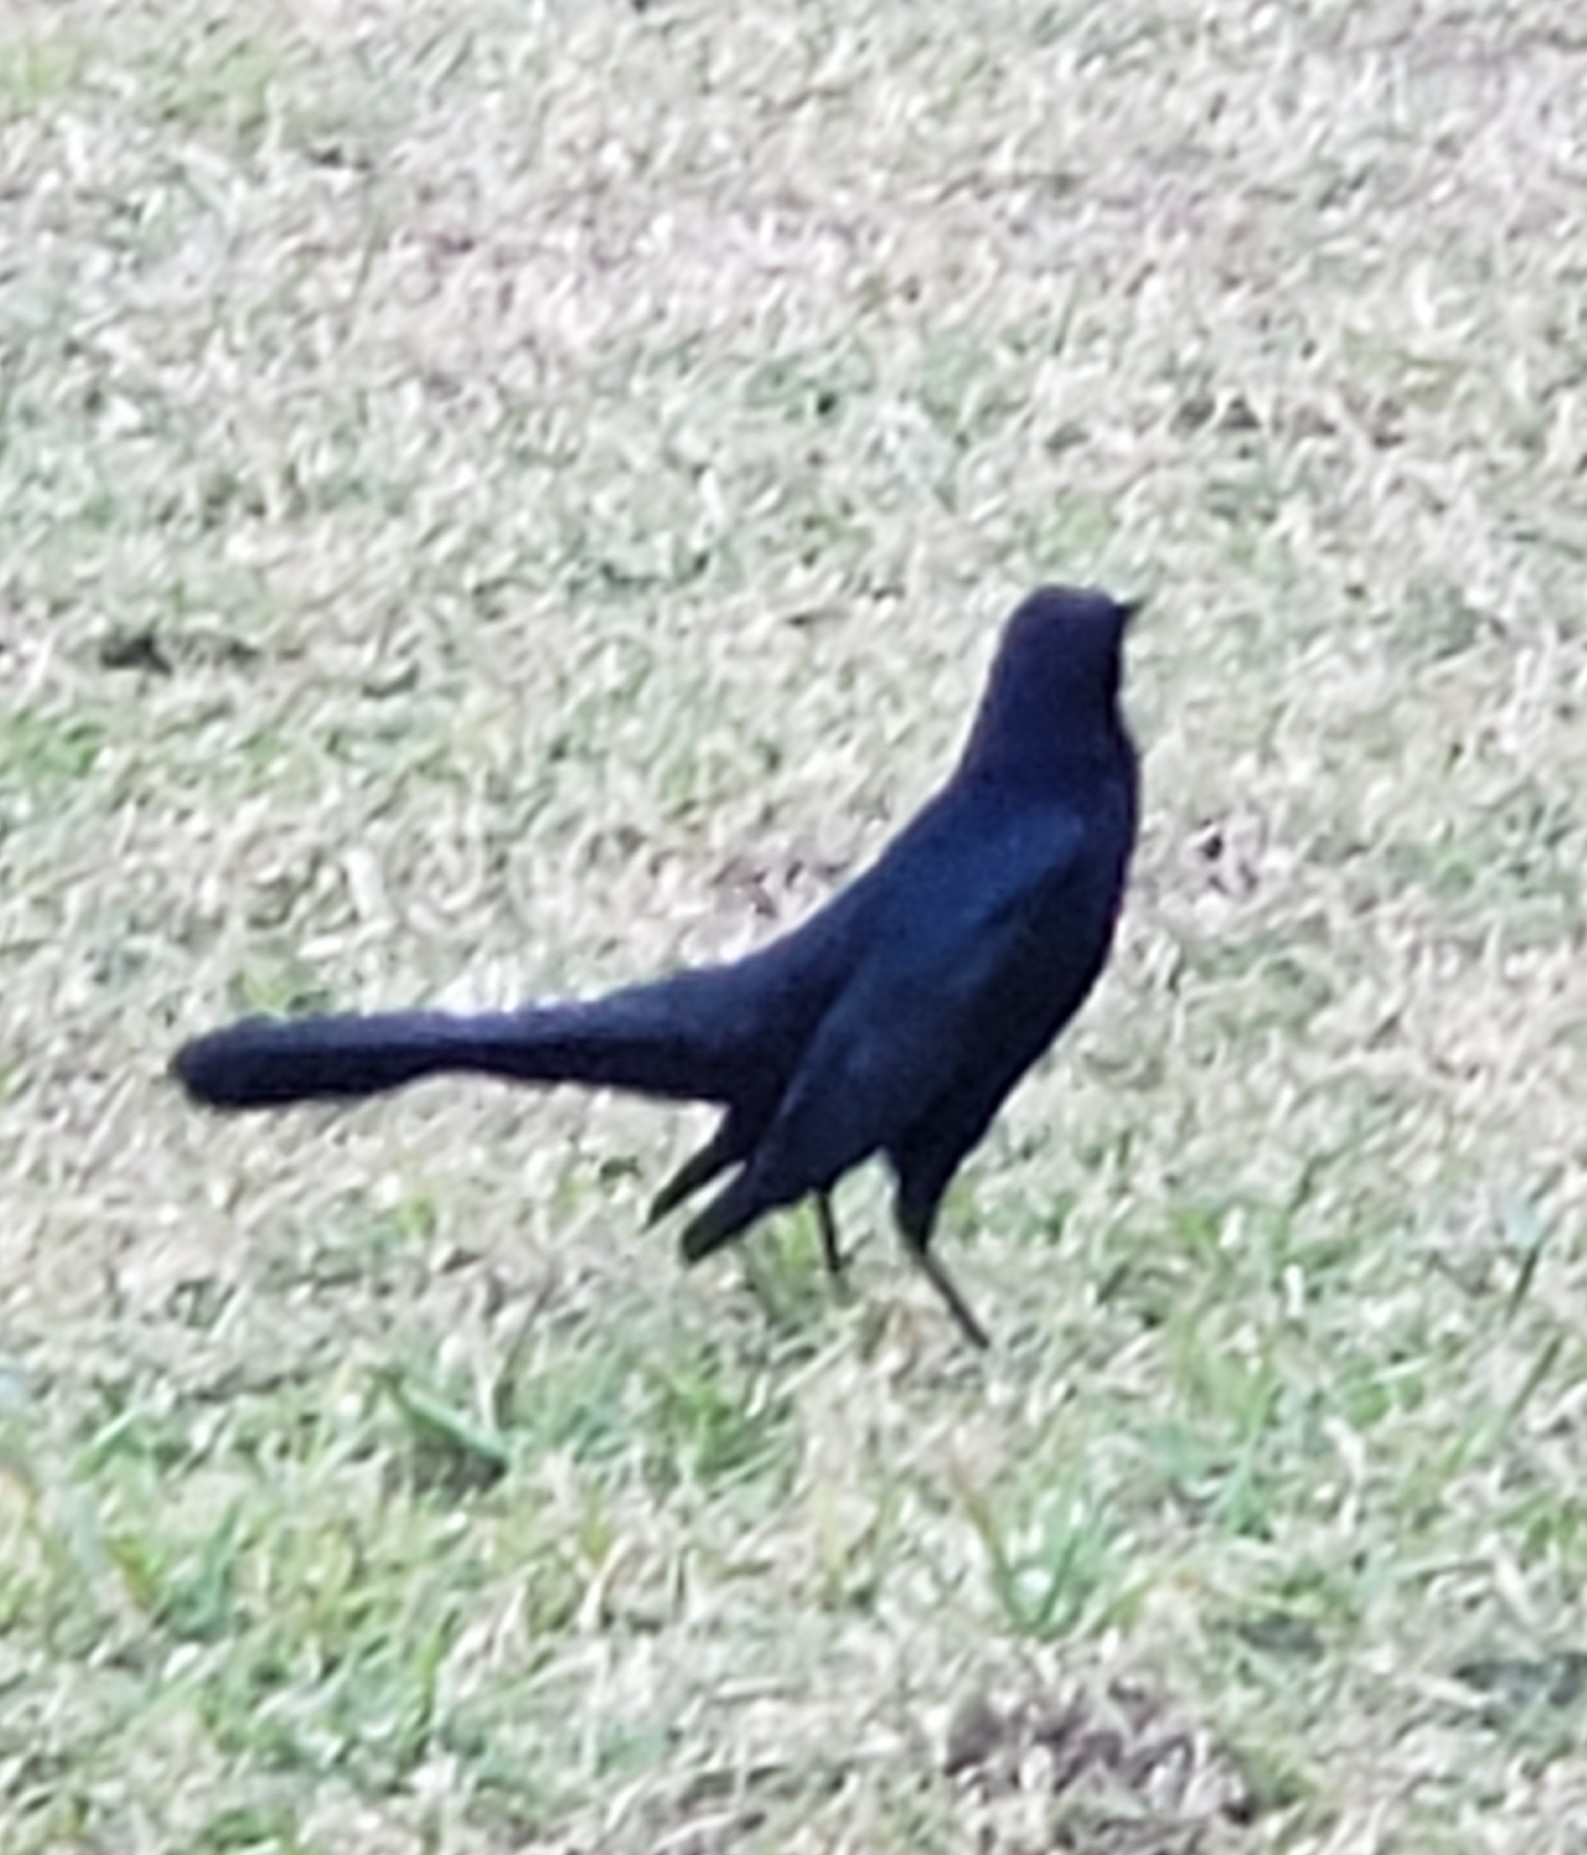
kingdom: Animalia
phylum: Chordata
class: Aves
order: Passeriformes
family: Icteridae
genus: Quiscalus
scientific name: Quiscalus major
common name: Boat-tailed grackle
